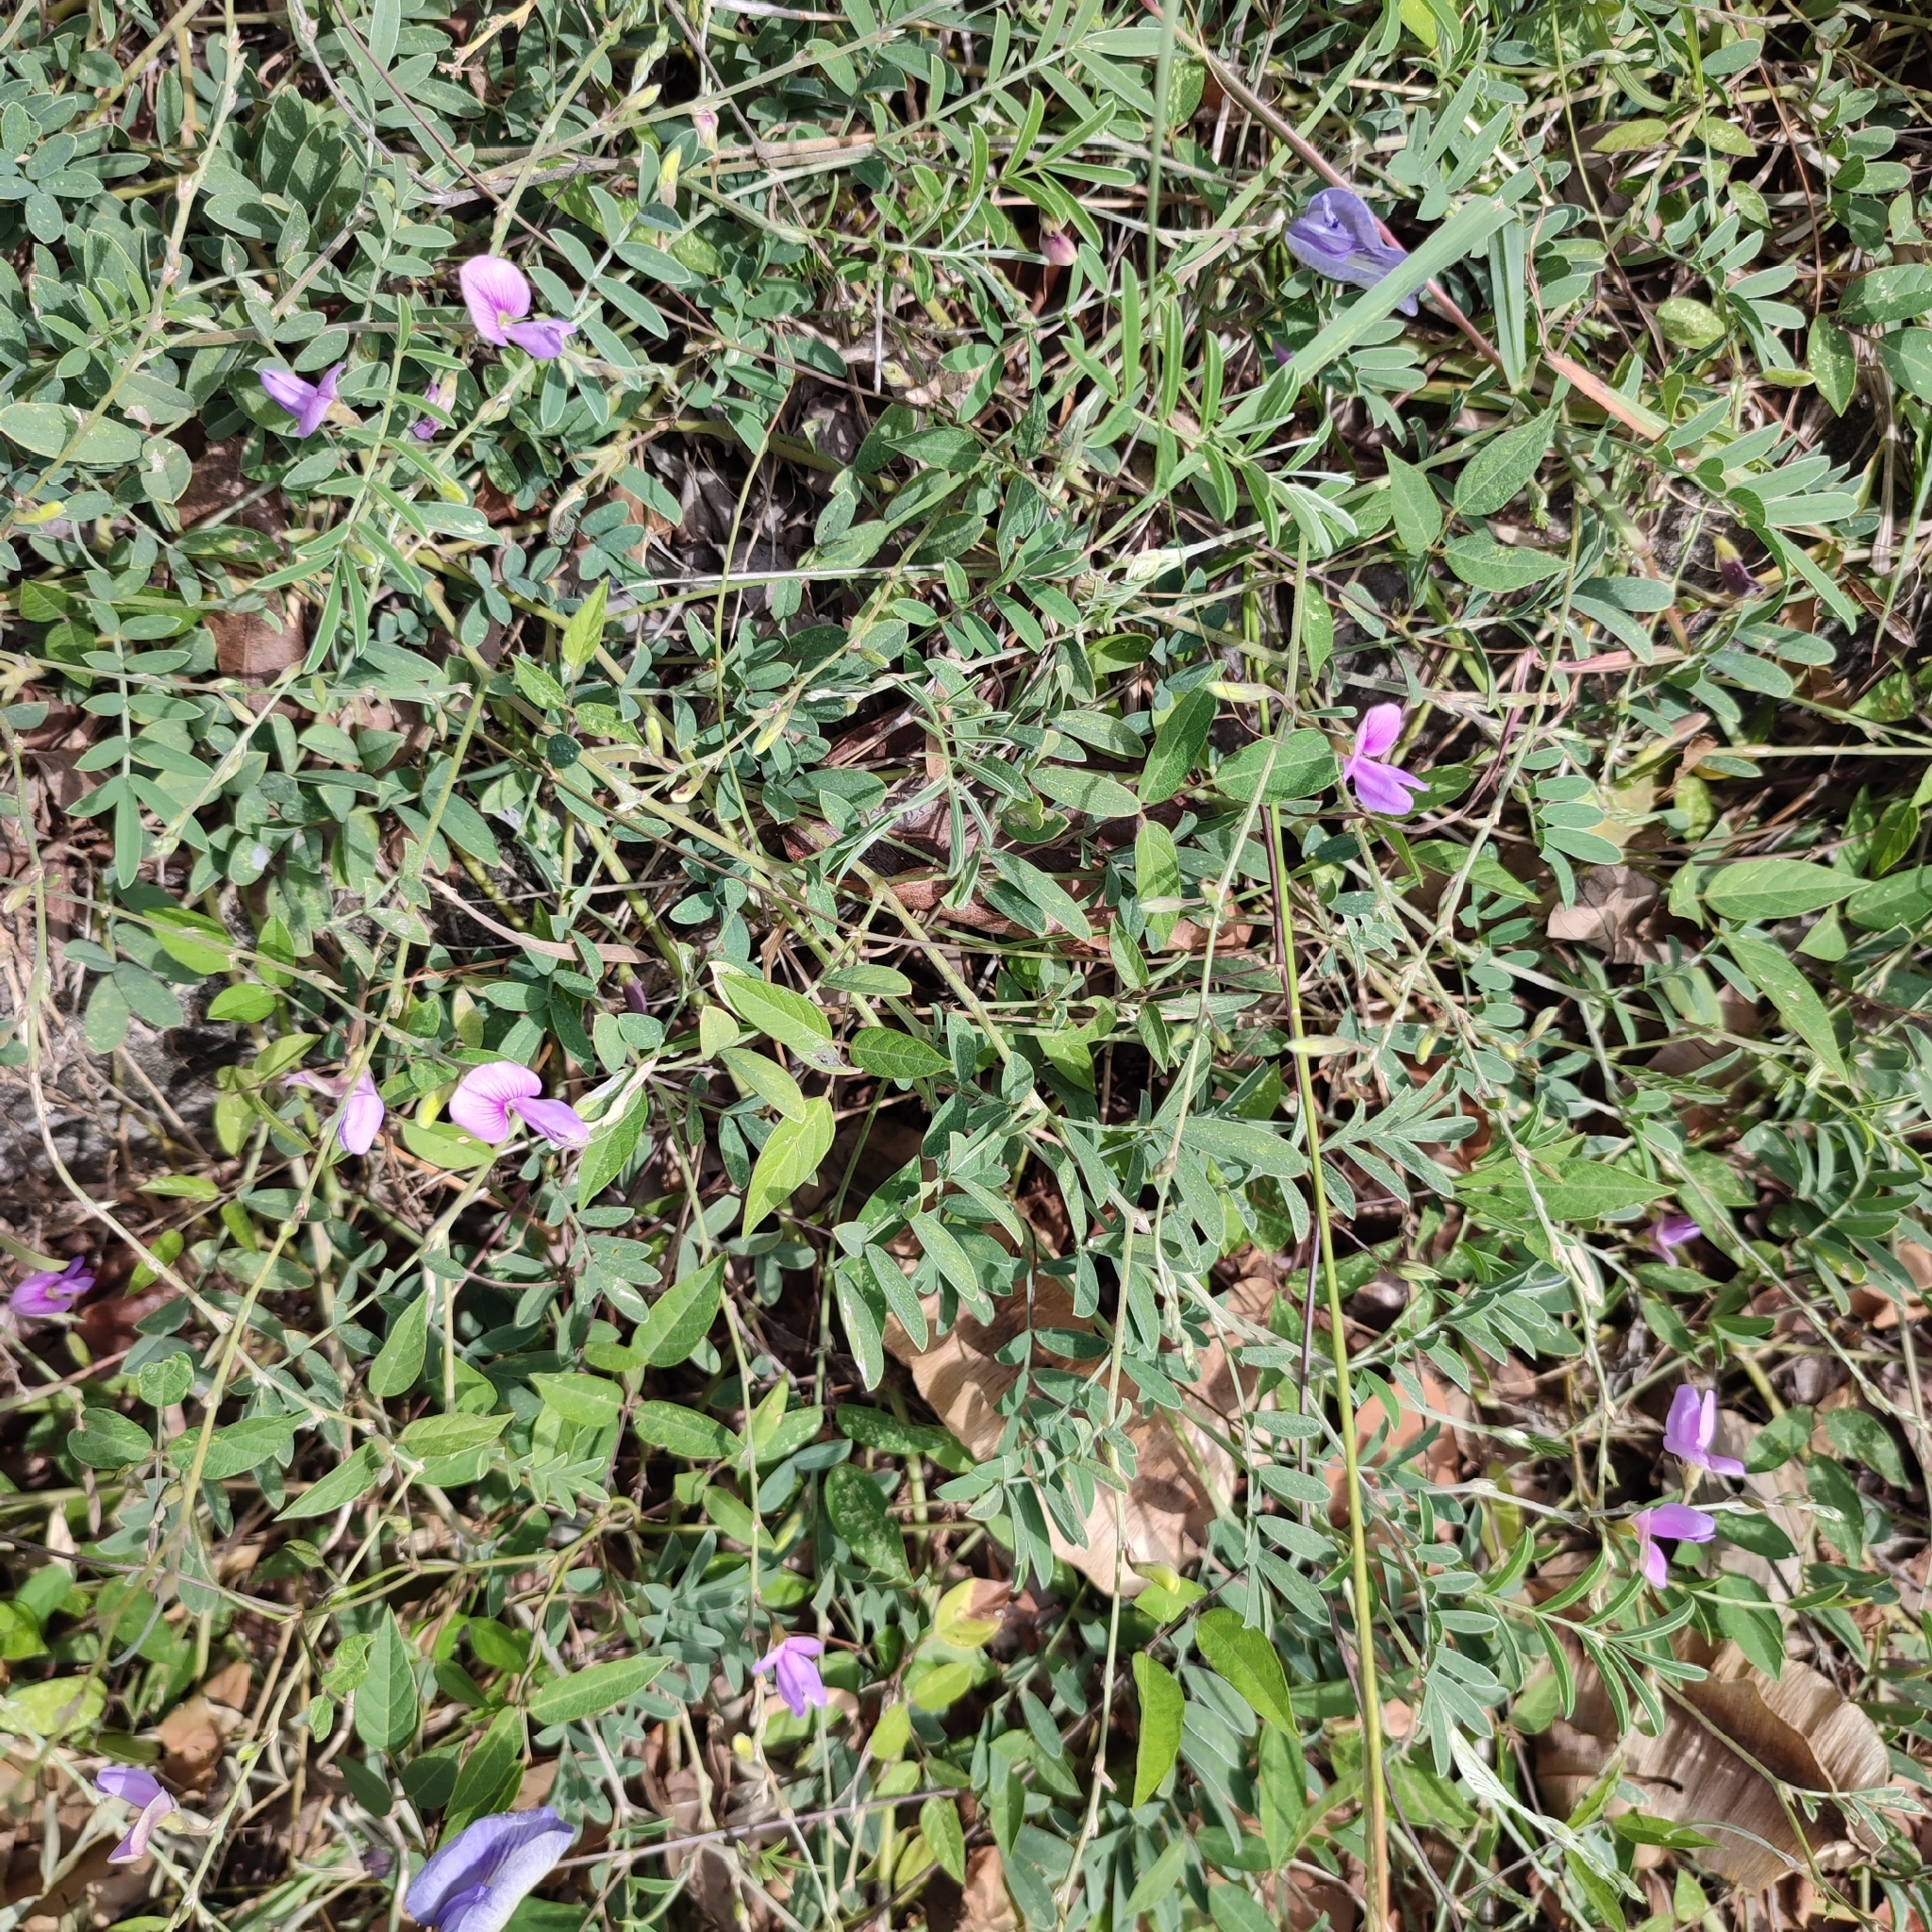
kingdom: Plantae
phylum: Tracheophyta
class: Magnoliopsida
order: Fabales
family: Fabaceae
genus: Tephrosia
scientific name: Tephrosia cinerea
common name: Ashen hoarypea
